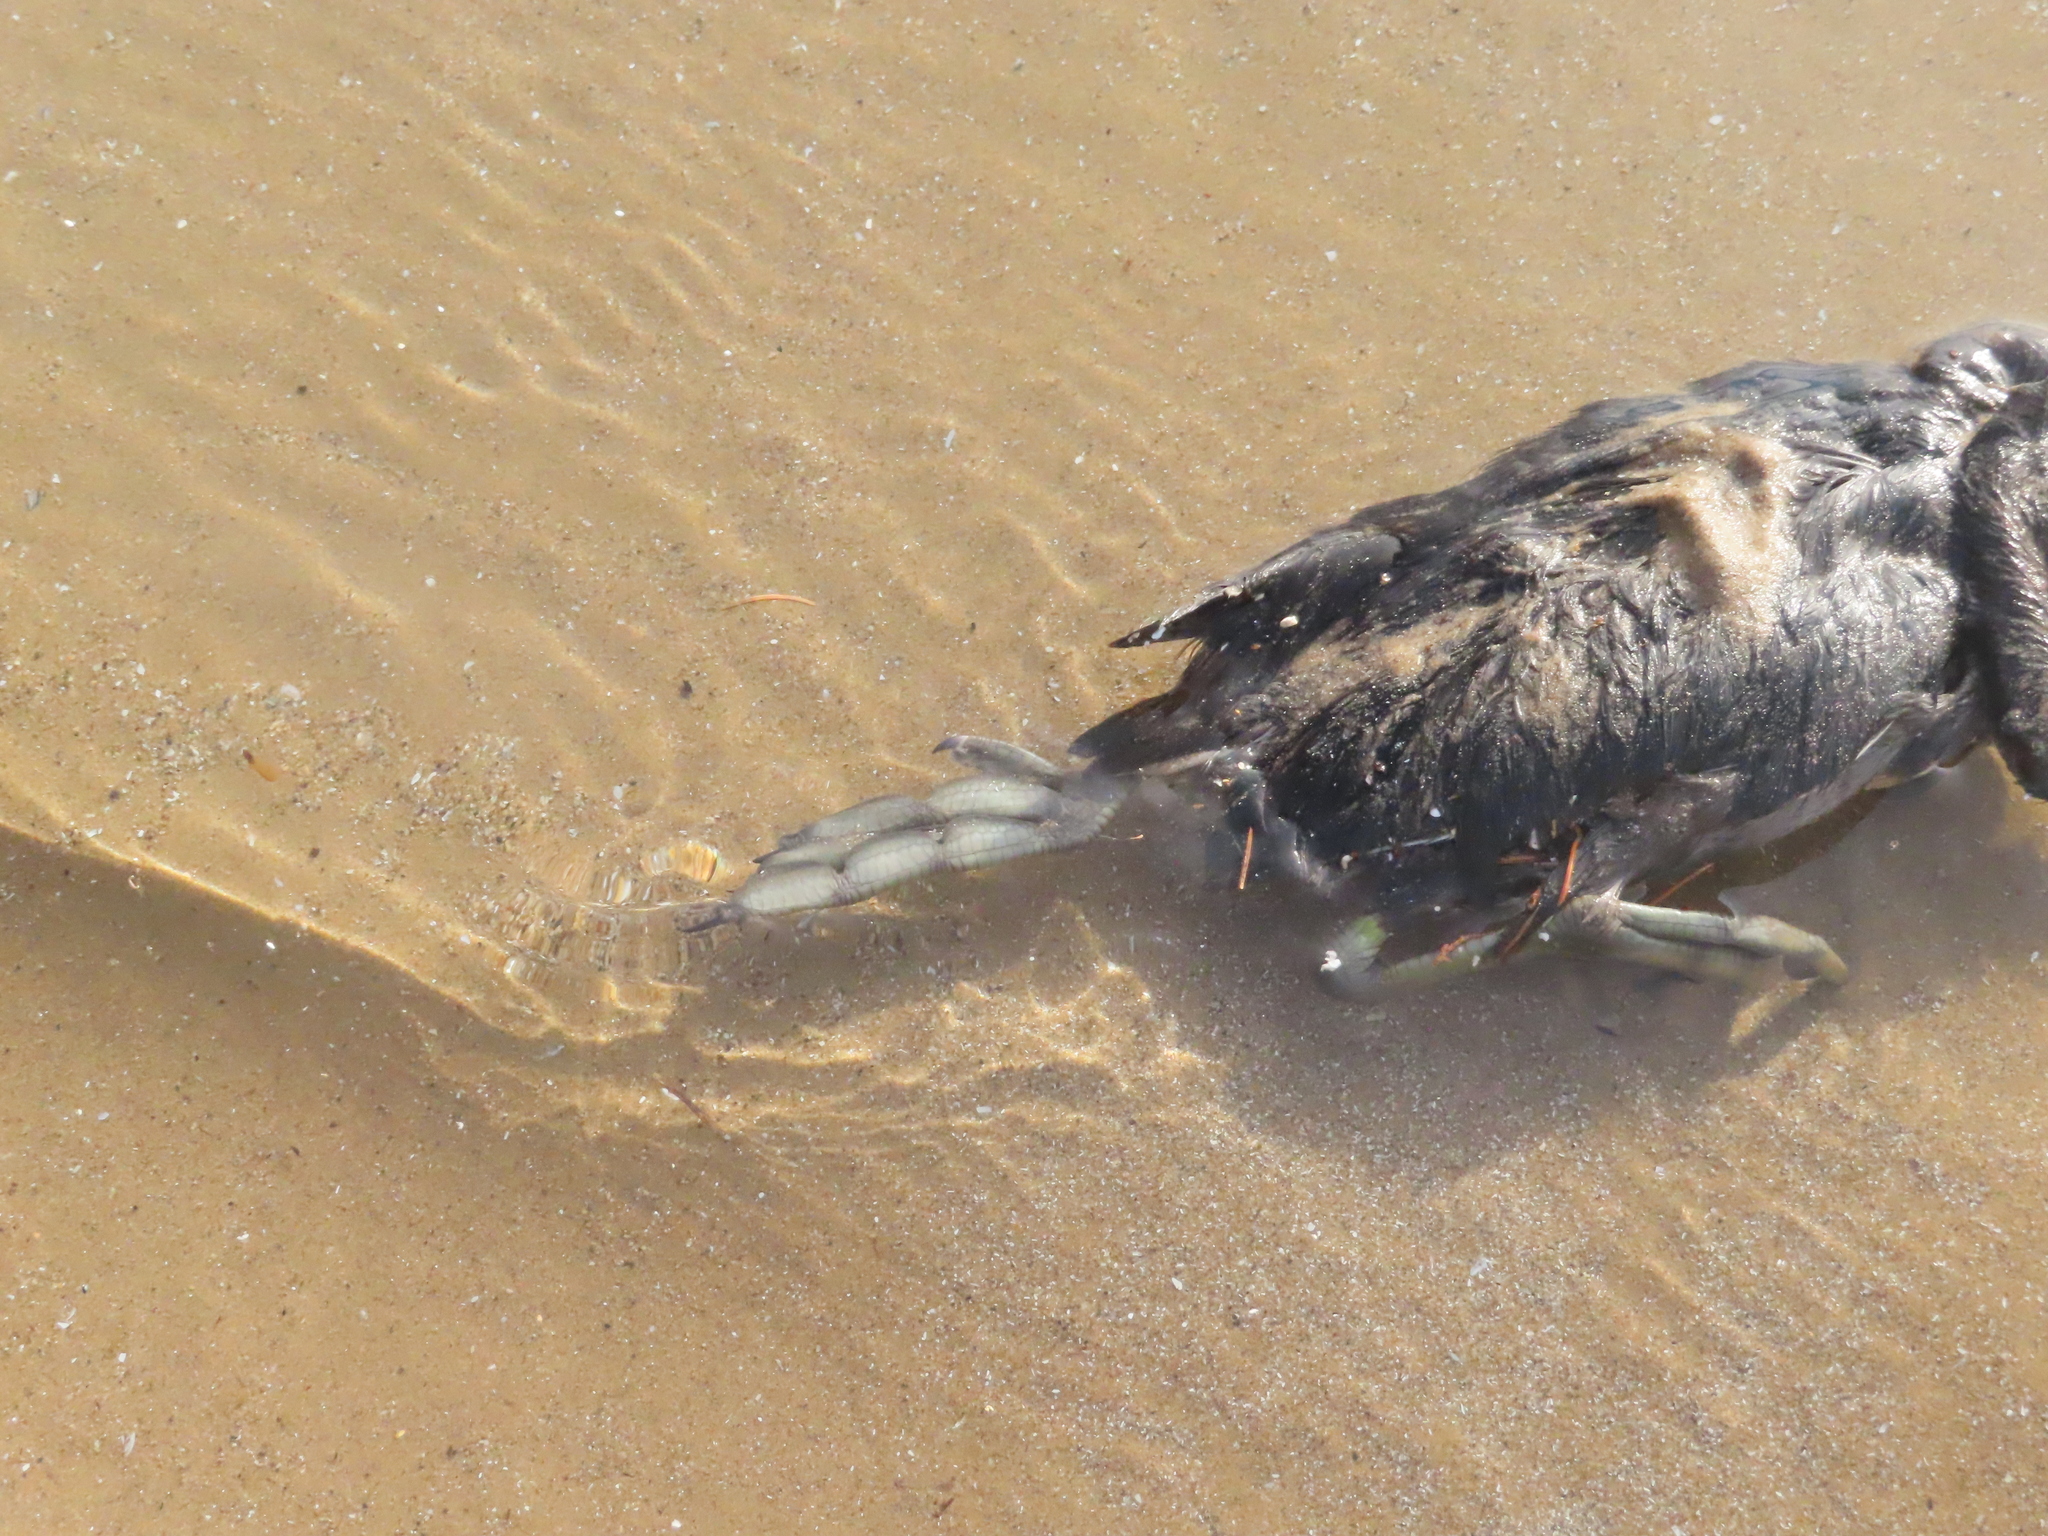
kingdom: Animalia
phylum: Chordata
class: Aves
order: Gruiformes
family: Rallidae
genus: Fulica
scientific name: Fulica americana
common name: American coot
